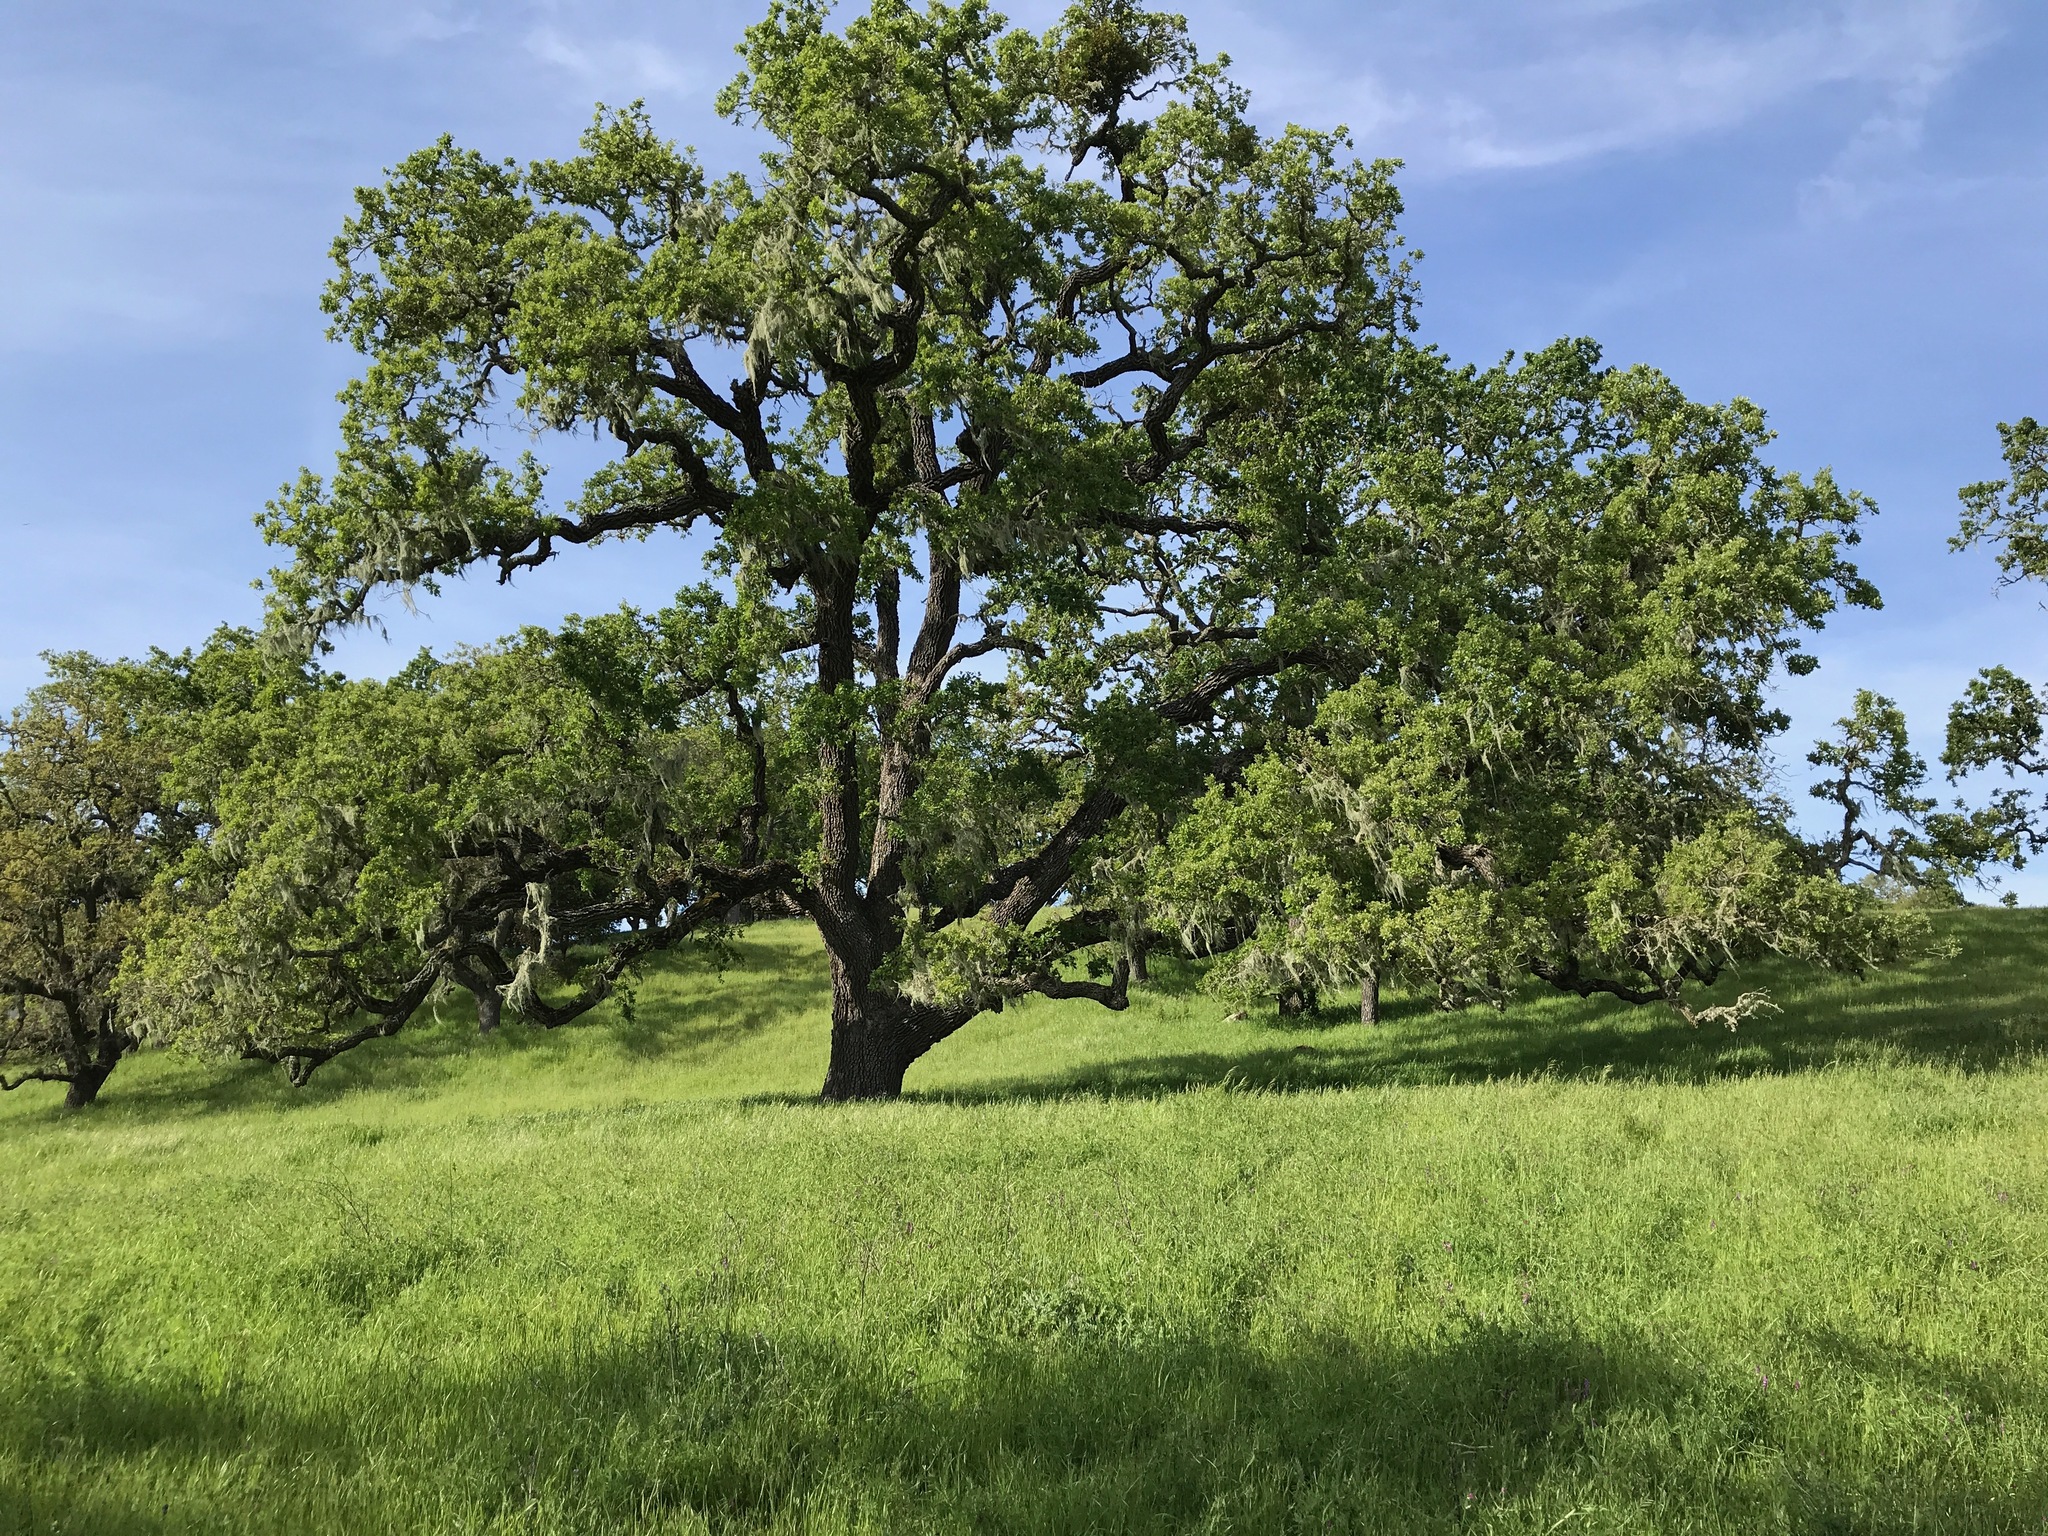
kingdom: Plantae
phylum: Tracheophyta
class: Magnoliopsida
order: Fagales
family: Fagaceae
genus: Quercus
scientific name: Quercus lobata
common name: Valley oak
